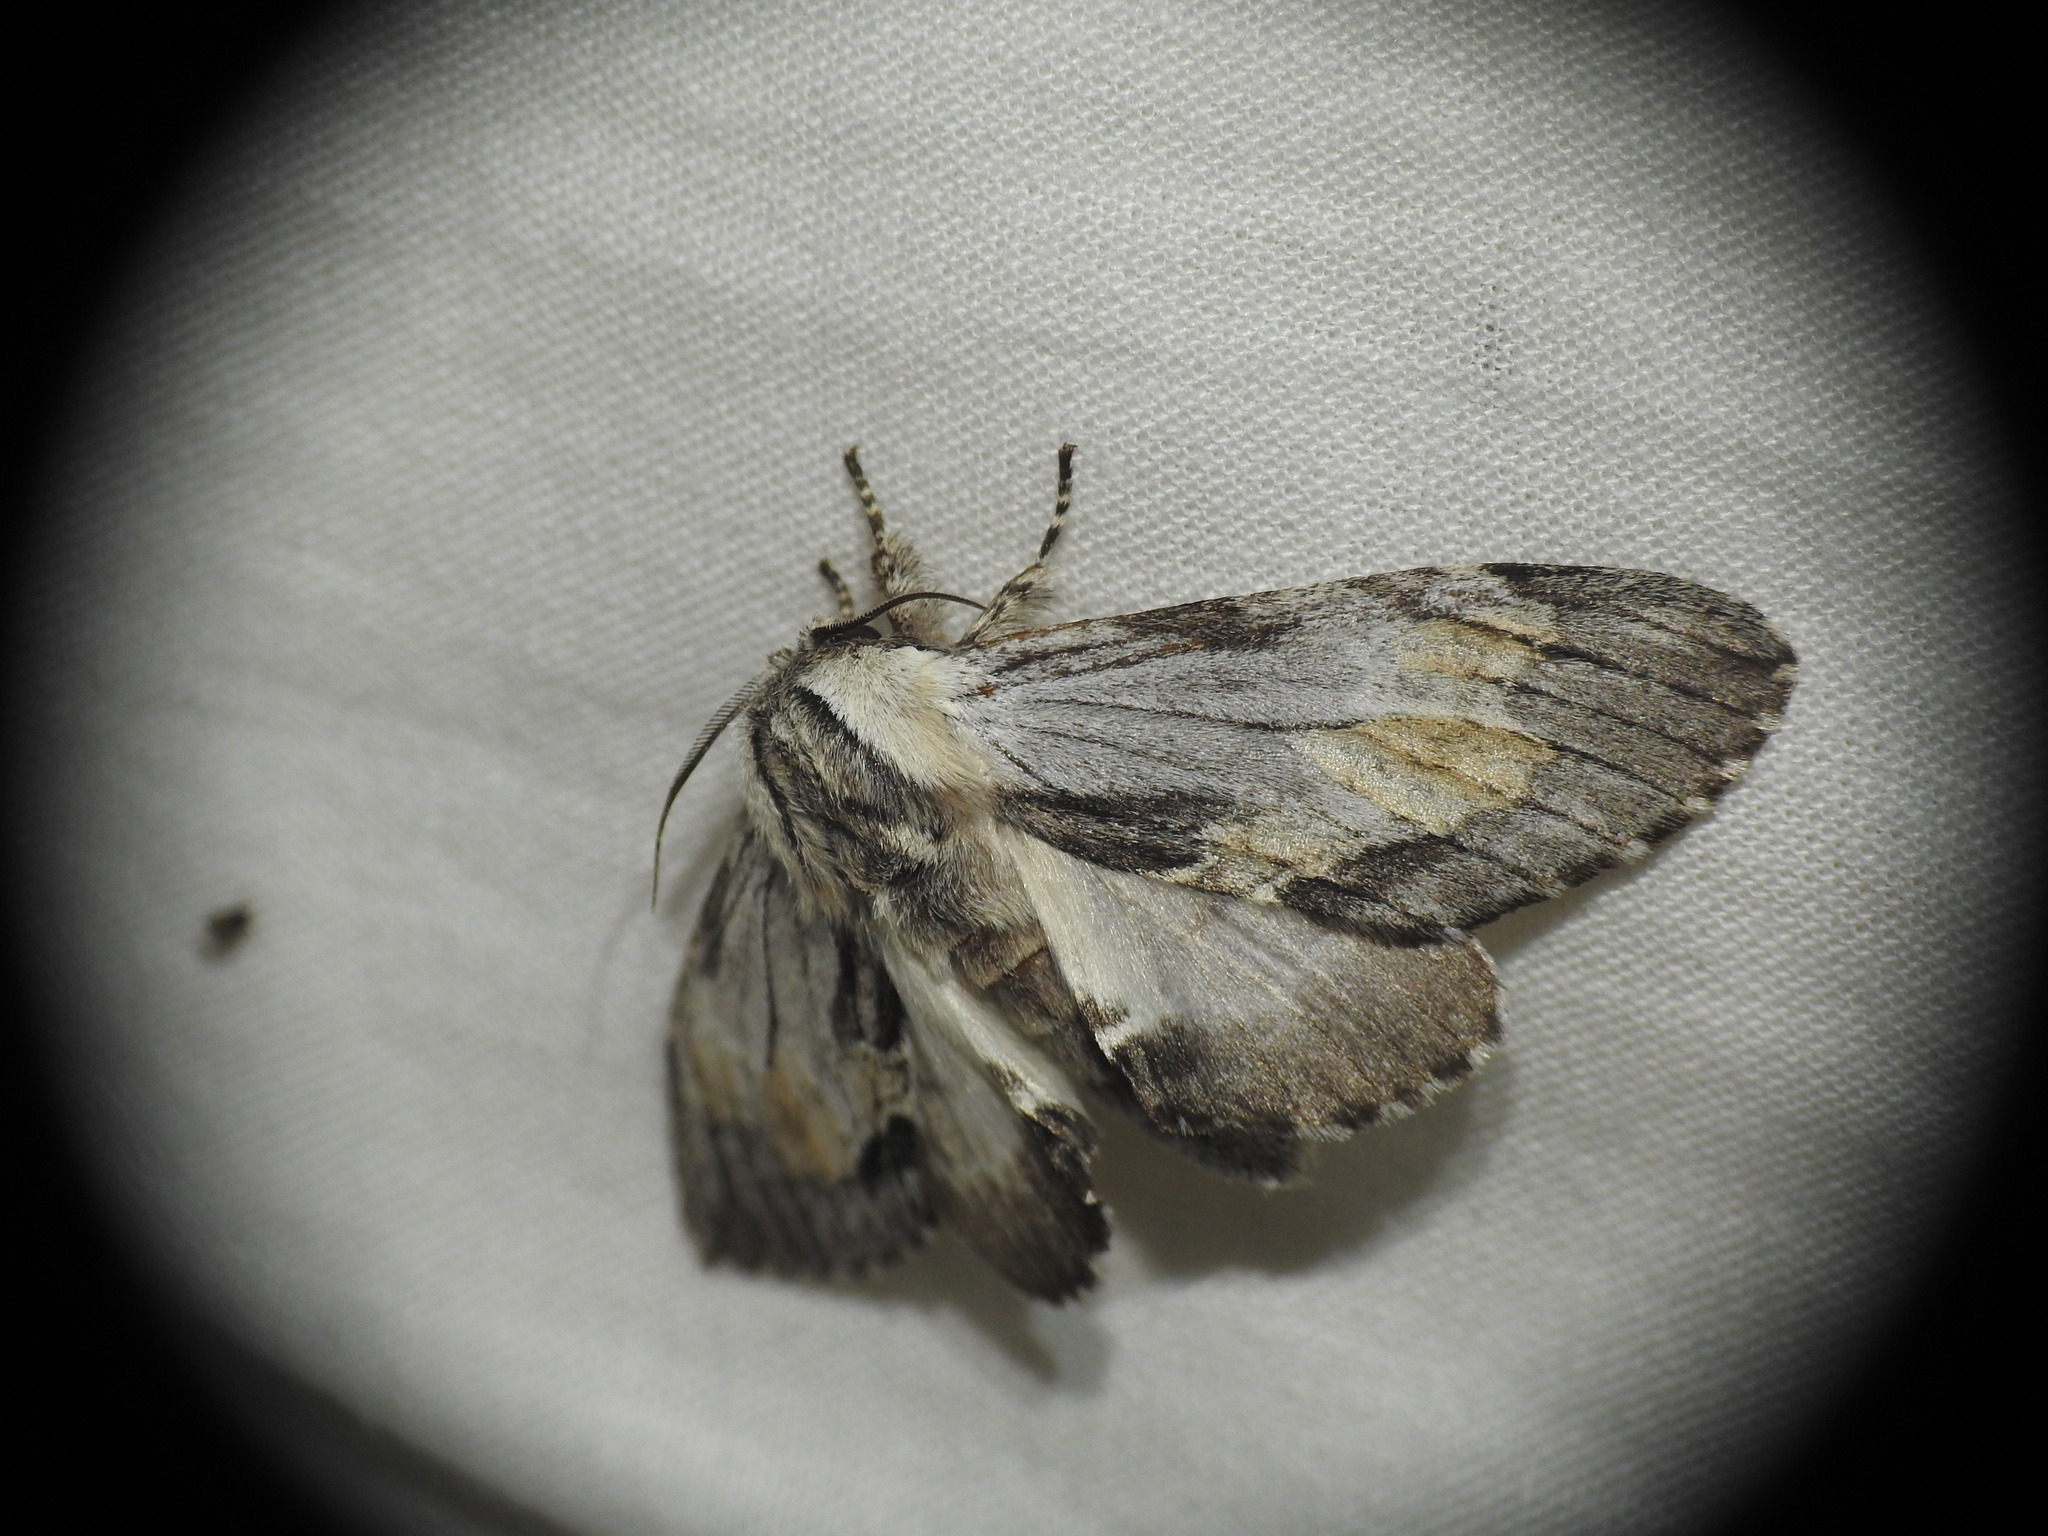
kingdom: Animalia
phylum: Arthropoda
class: Insecta
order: Lepidoptera
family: Notodontidae
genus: Harpyia
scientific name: Harpyia milhauseri
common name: Tawny prominent
